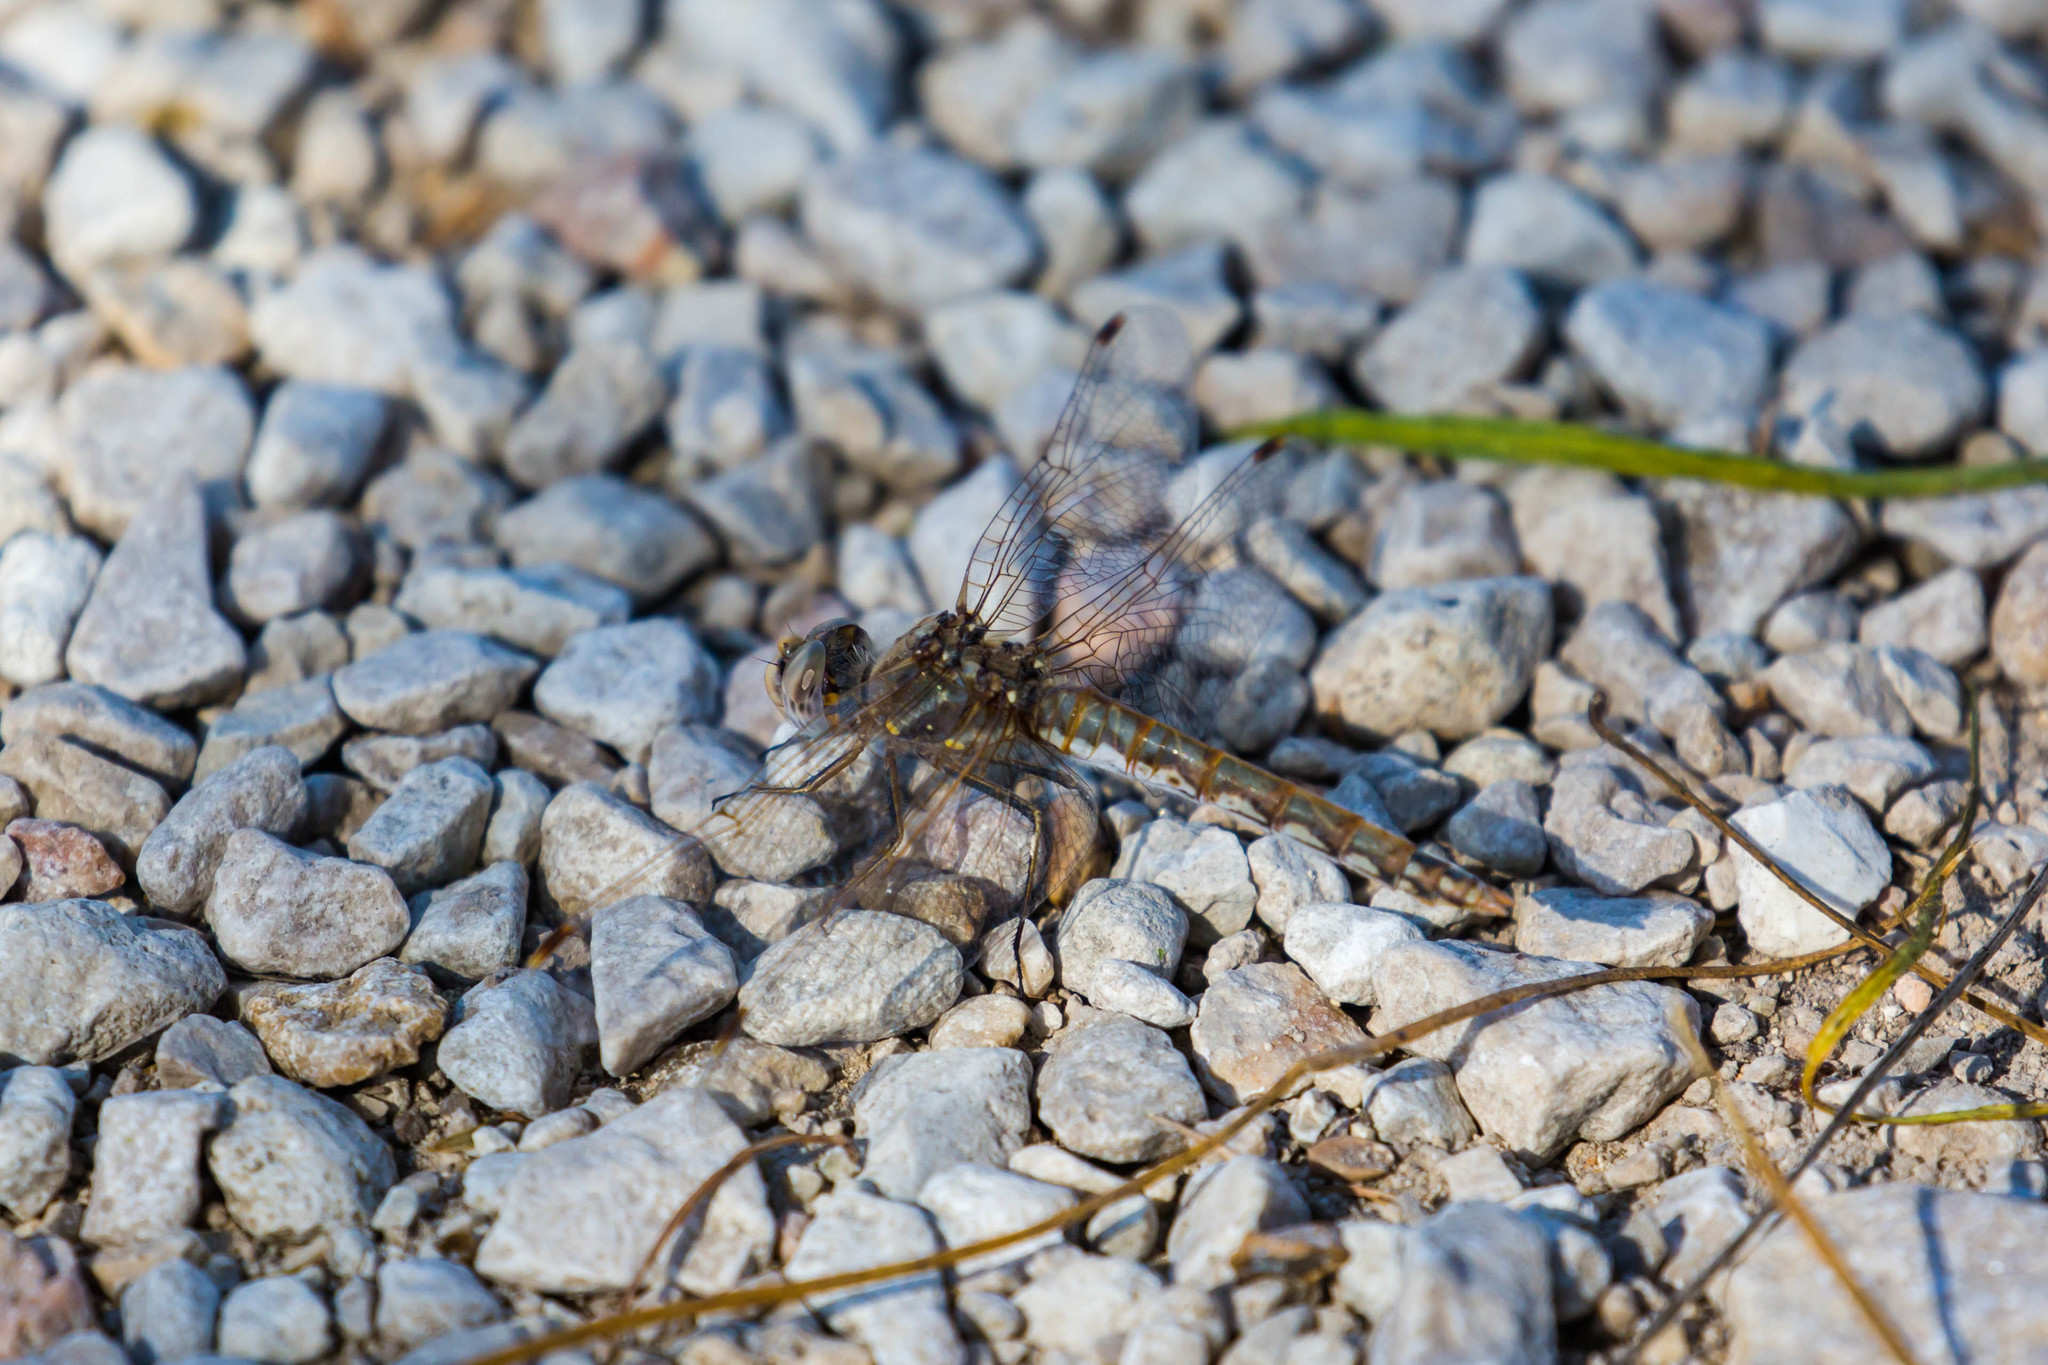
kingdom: Animalia
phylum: Arthropoda
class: Insecta
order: Odonata
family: Libellulidae
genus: Sympetrum
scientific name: Sympetrum corruptum
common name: Variegated meadowhawk
